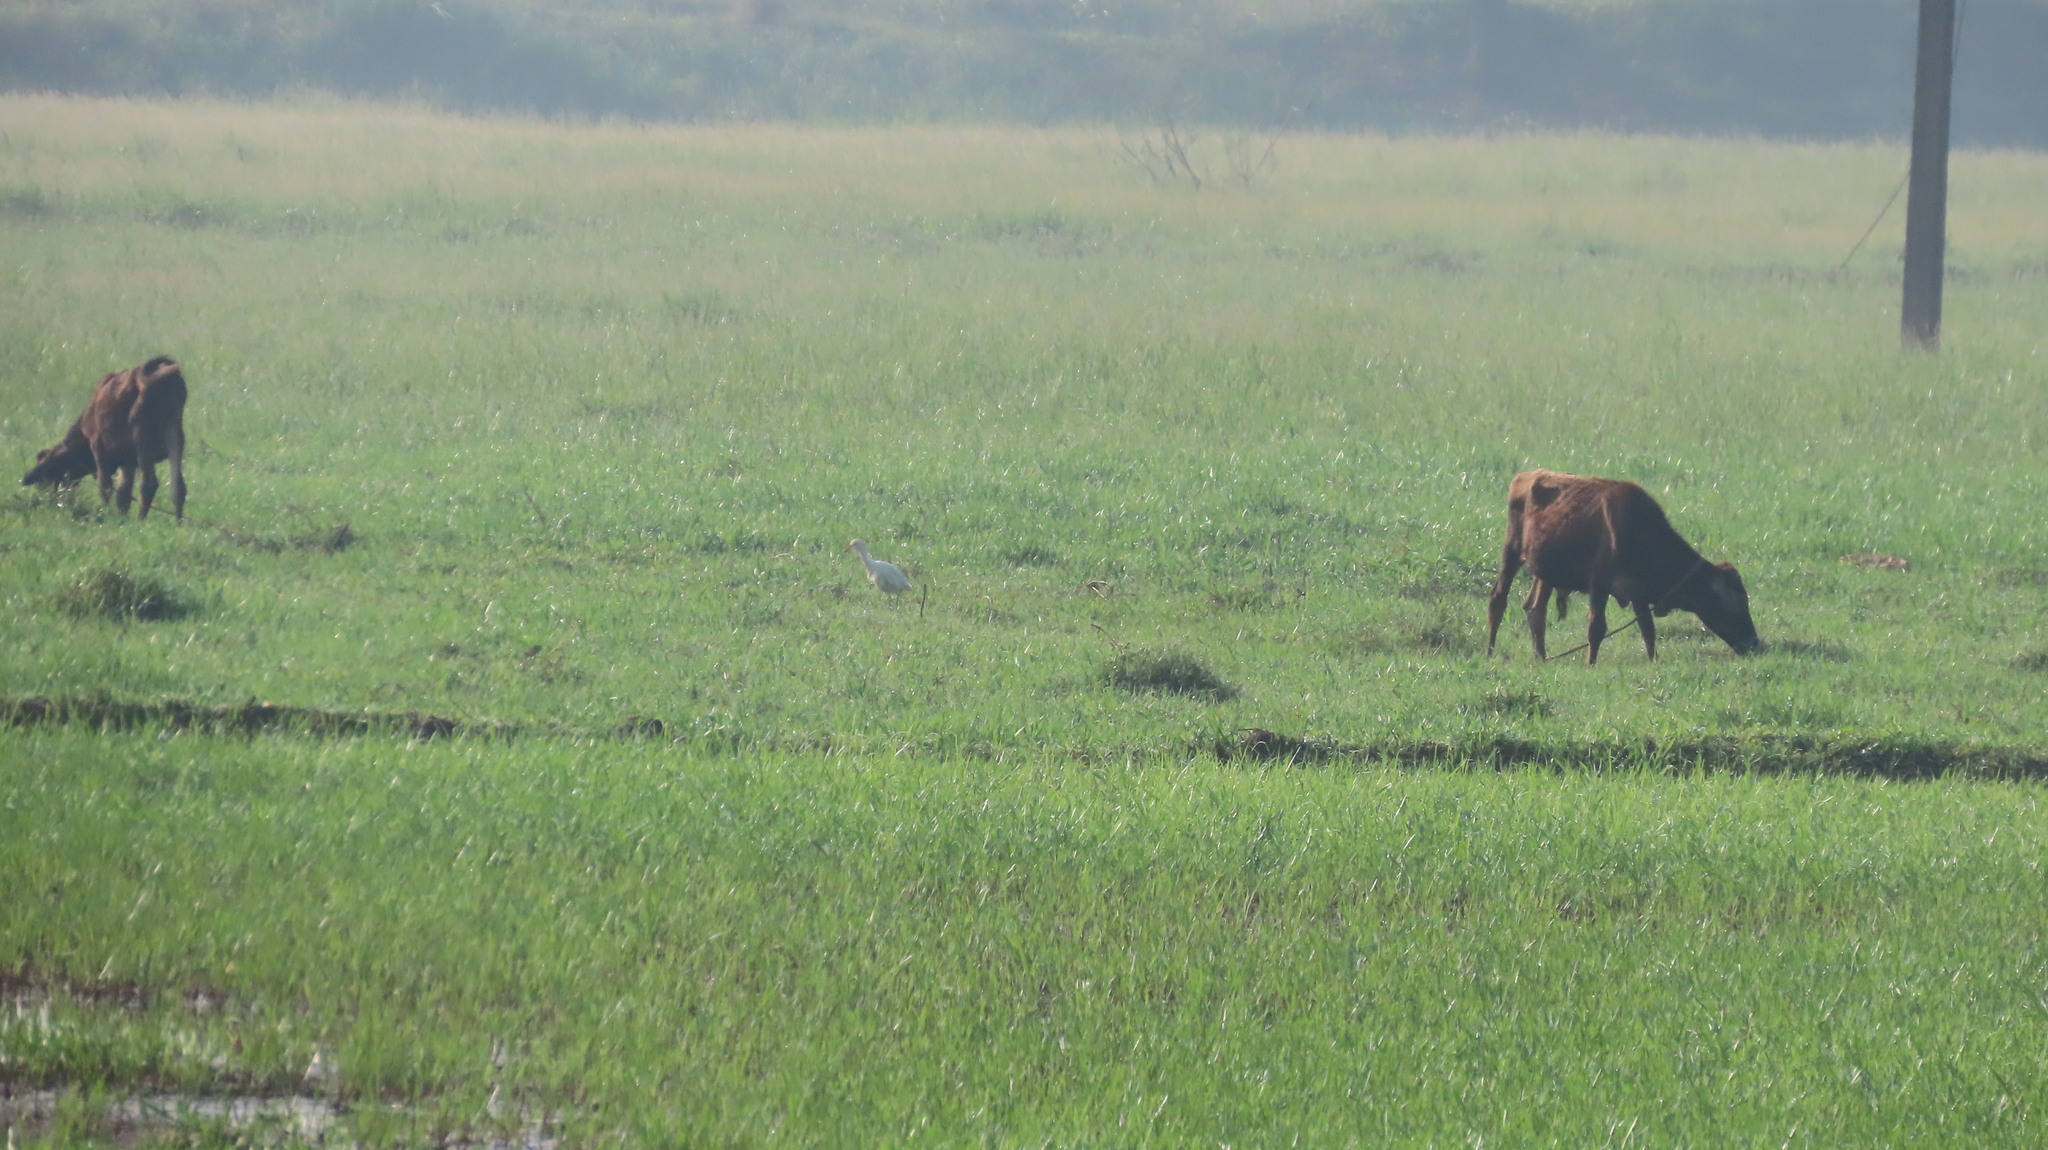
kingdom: Animalia
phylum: Chordata
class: Aves
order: Pelecaniformes
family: Ardeidae
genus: Bubulcus
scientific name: Bubulcus coromandus
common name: Eastern cattle egret
